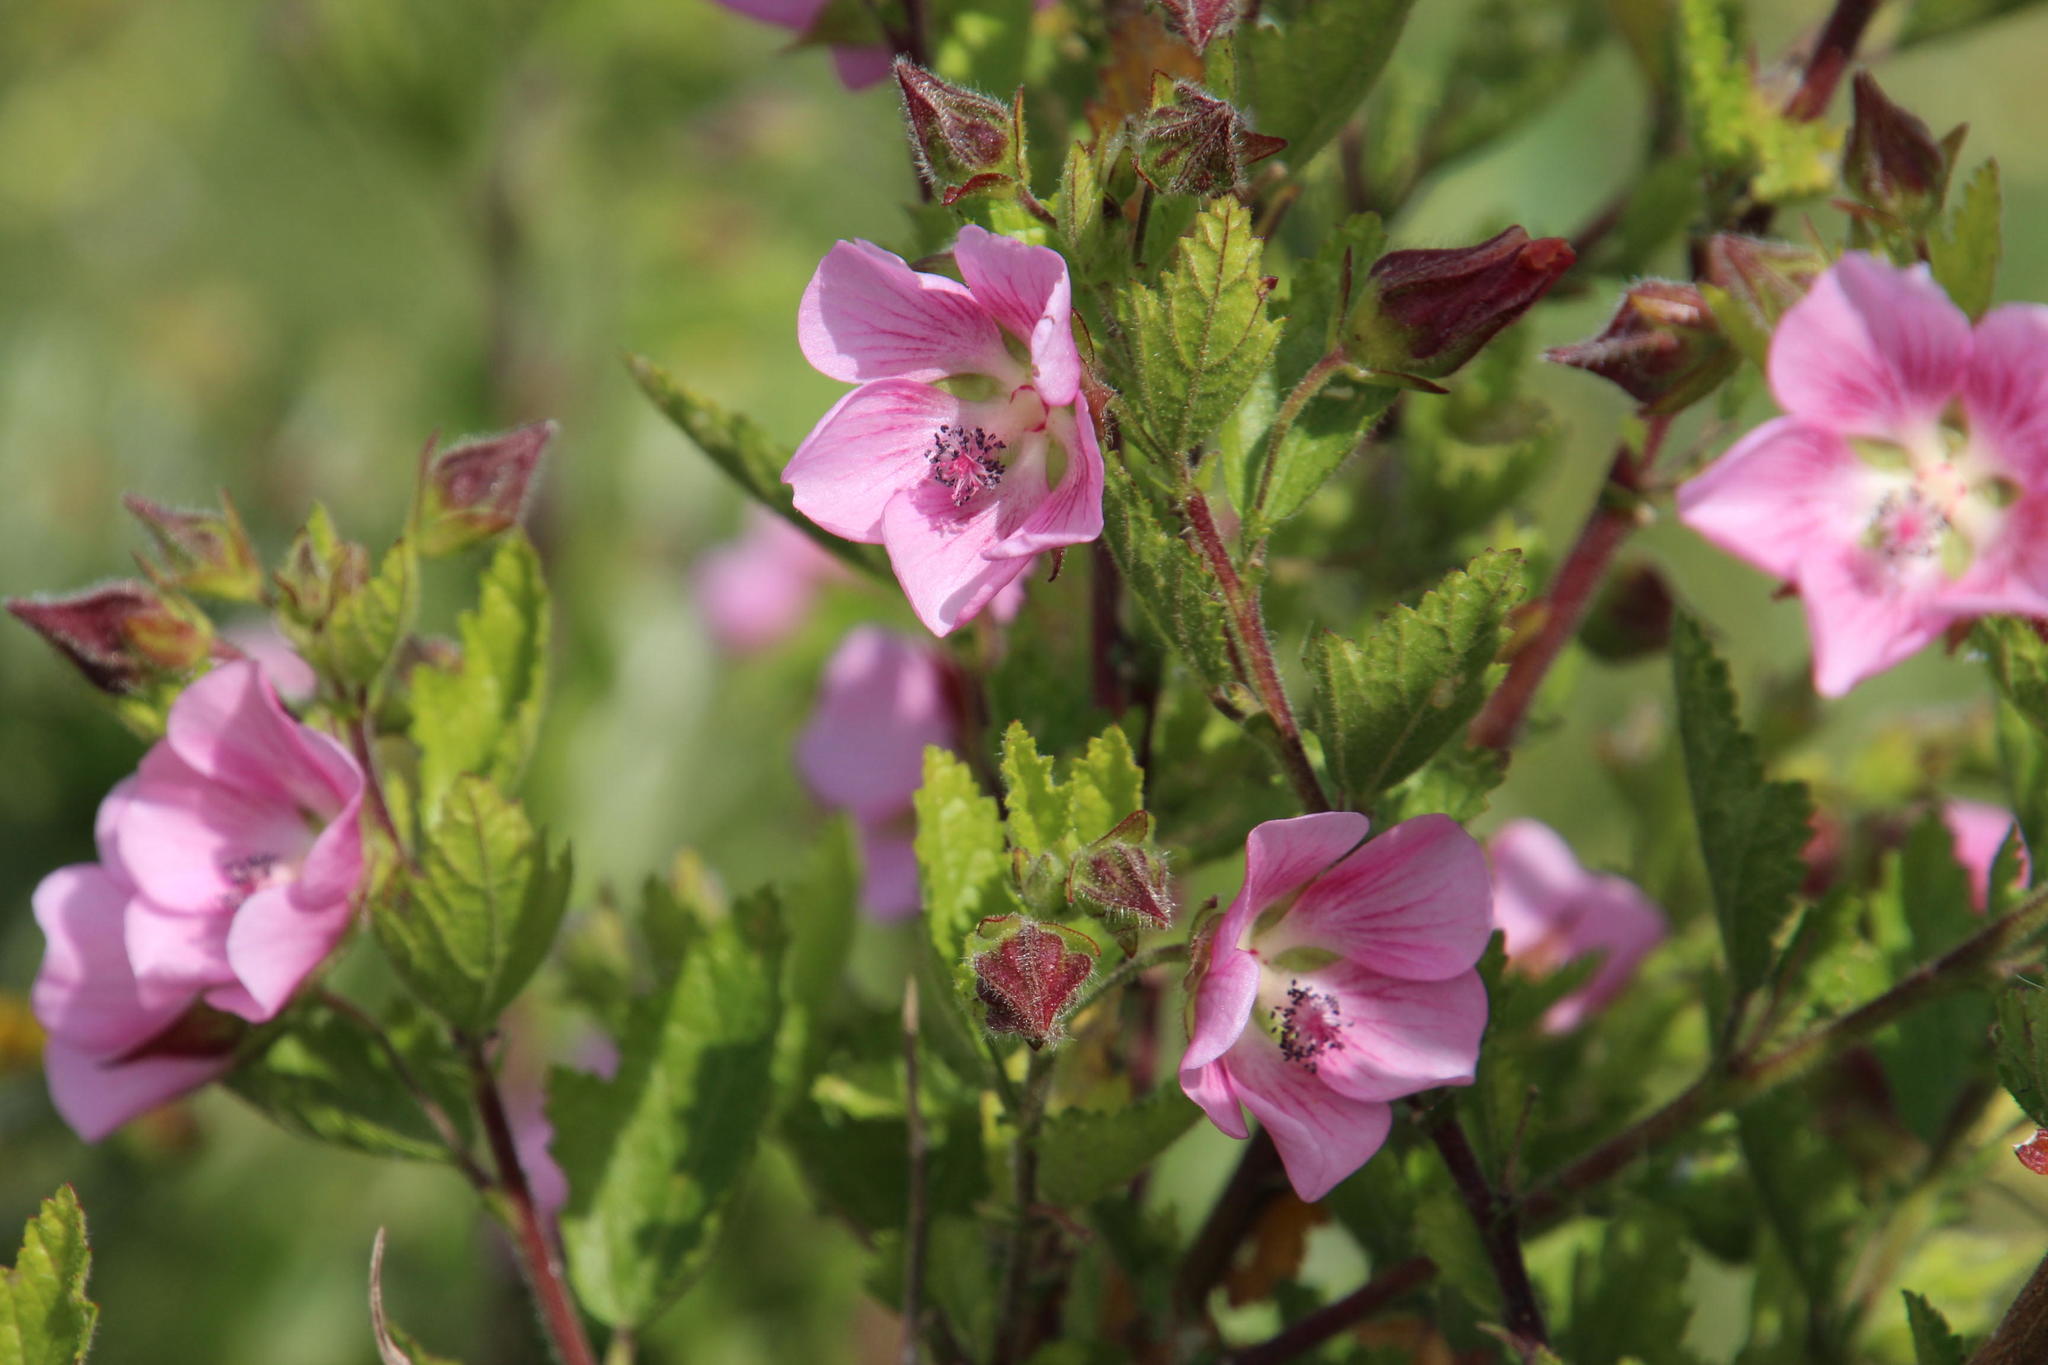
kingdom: Plantae
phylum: Tracheophyta
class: Magnoliopsida
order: Malvales
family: Malvaceae
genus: Anisodontea
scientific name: Anisodontea scabrosa
